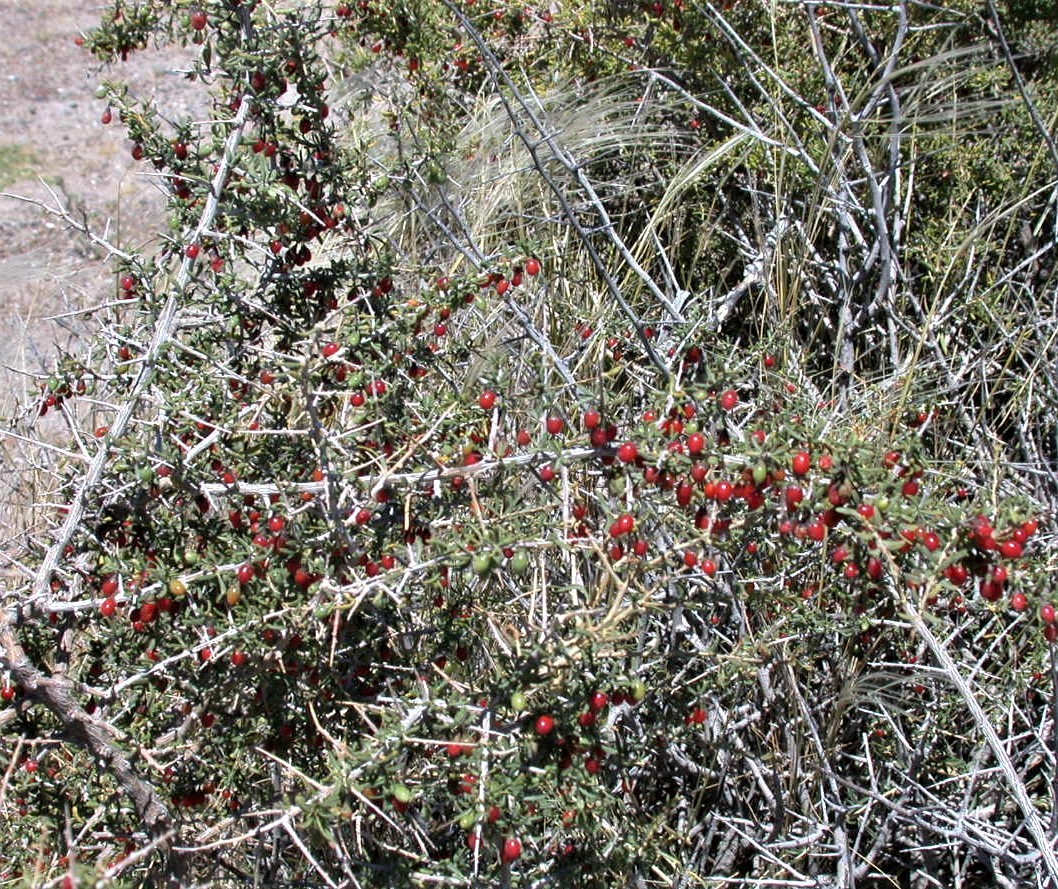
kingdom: Plantae
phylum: Tracheophyta
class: Magnoliopsida
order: Solanales
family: Solanaceae
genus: Lycium
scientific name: Lycium chilense
